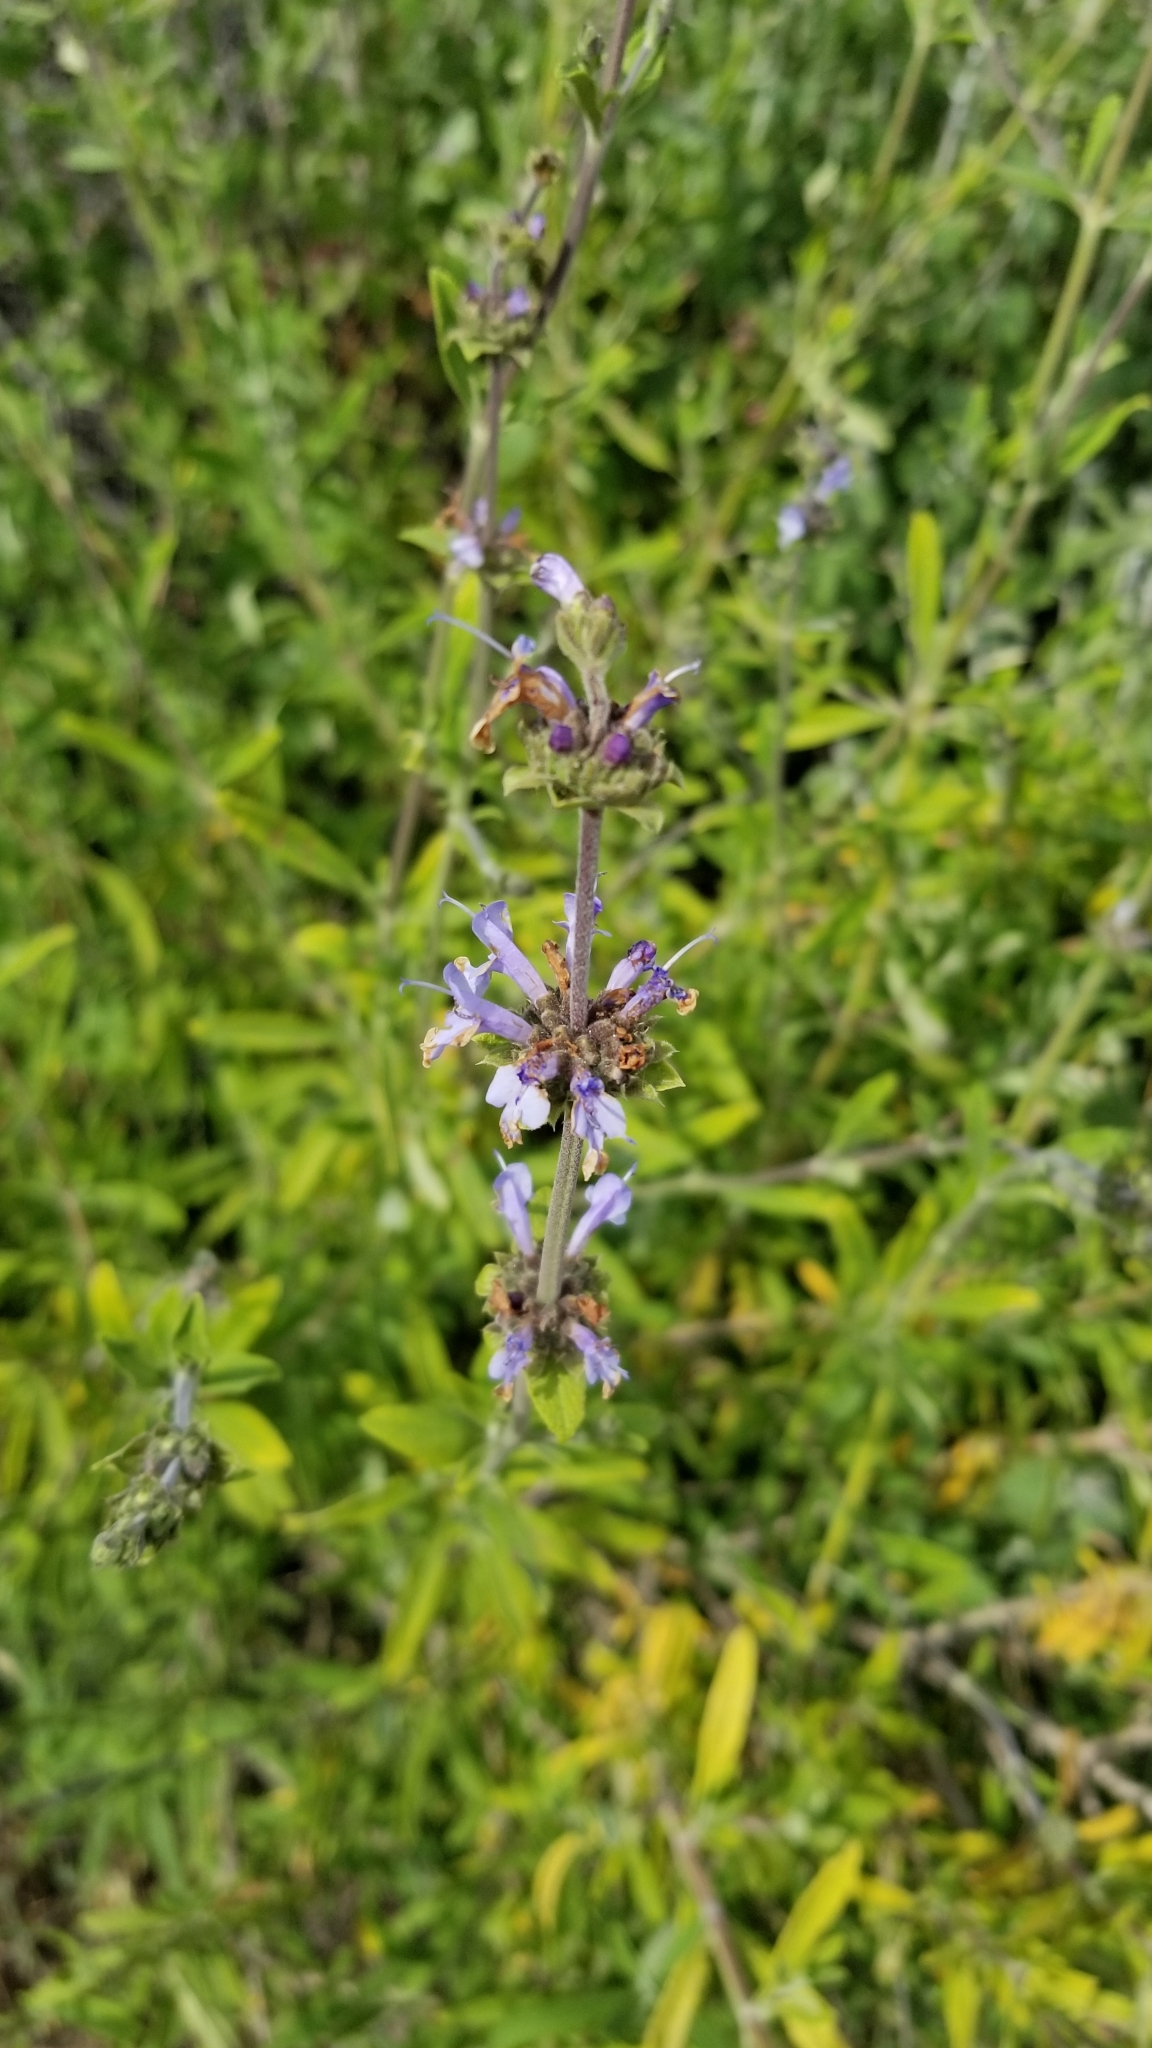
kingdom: Plantae
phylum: Tracheophyta
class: Magnoliopsida
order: Lamiales
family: Lamiaceae
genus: Salvia
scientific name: Salvia mellifera
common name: Black sage
